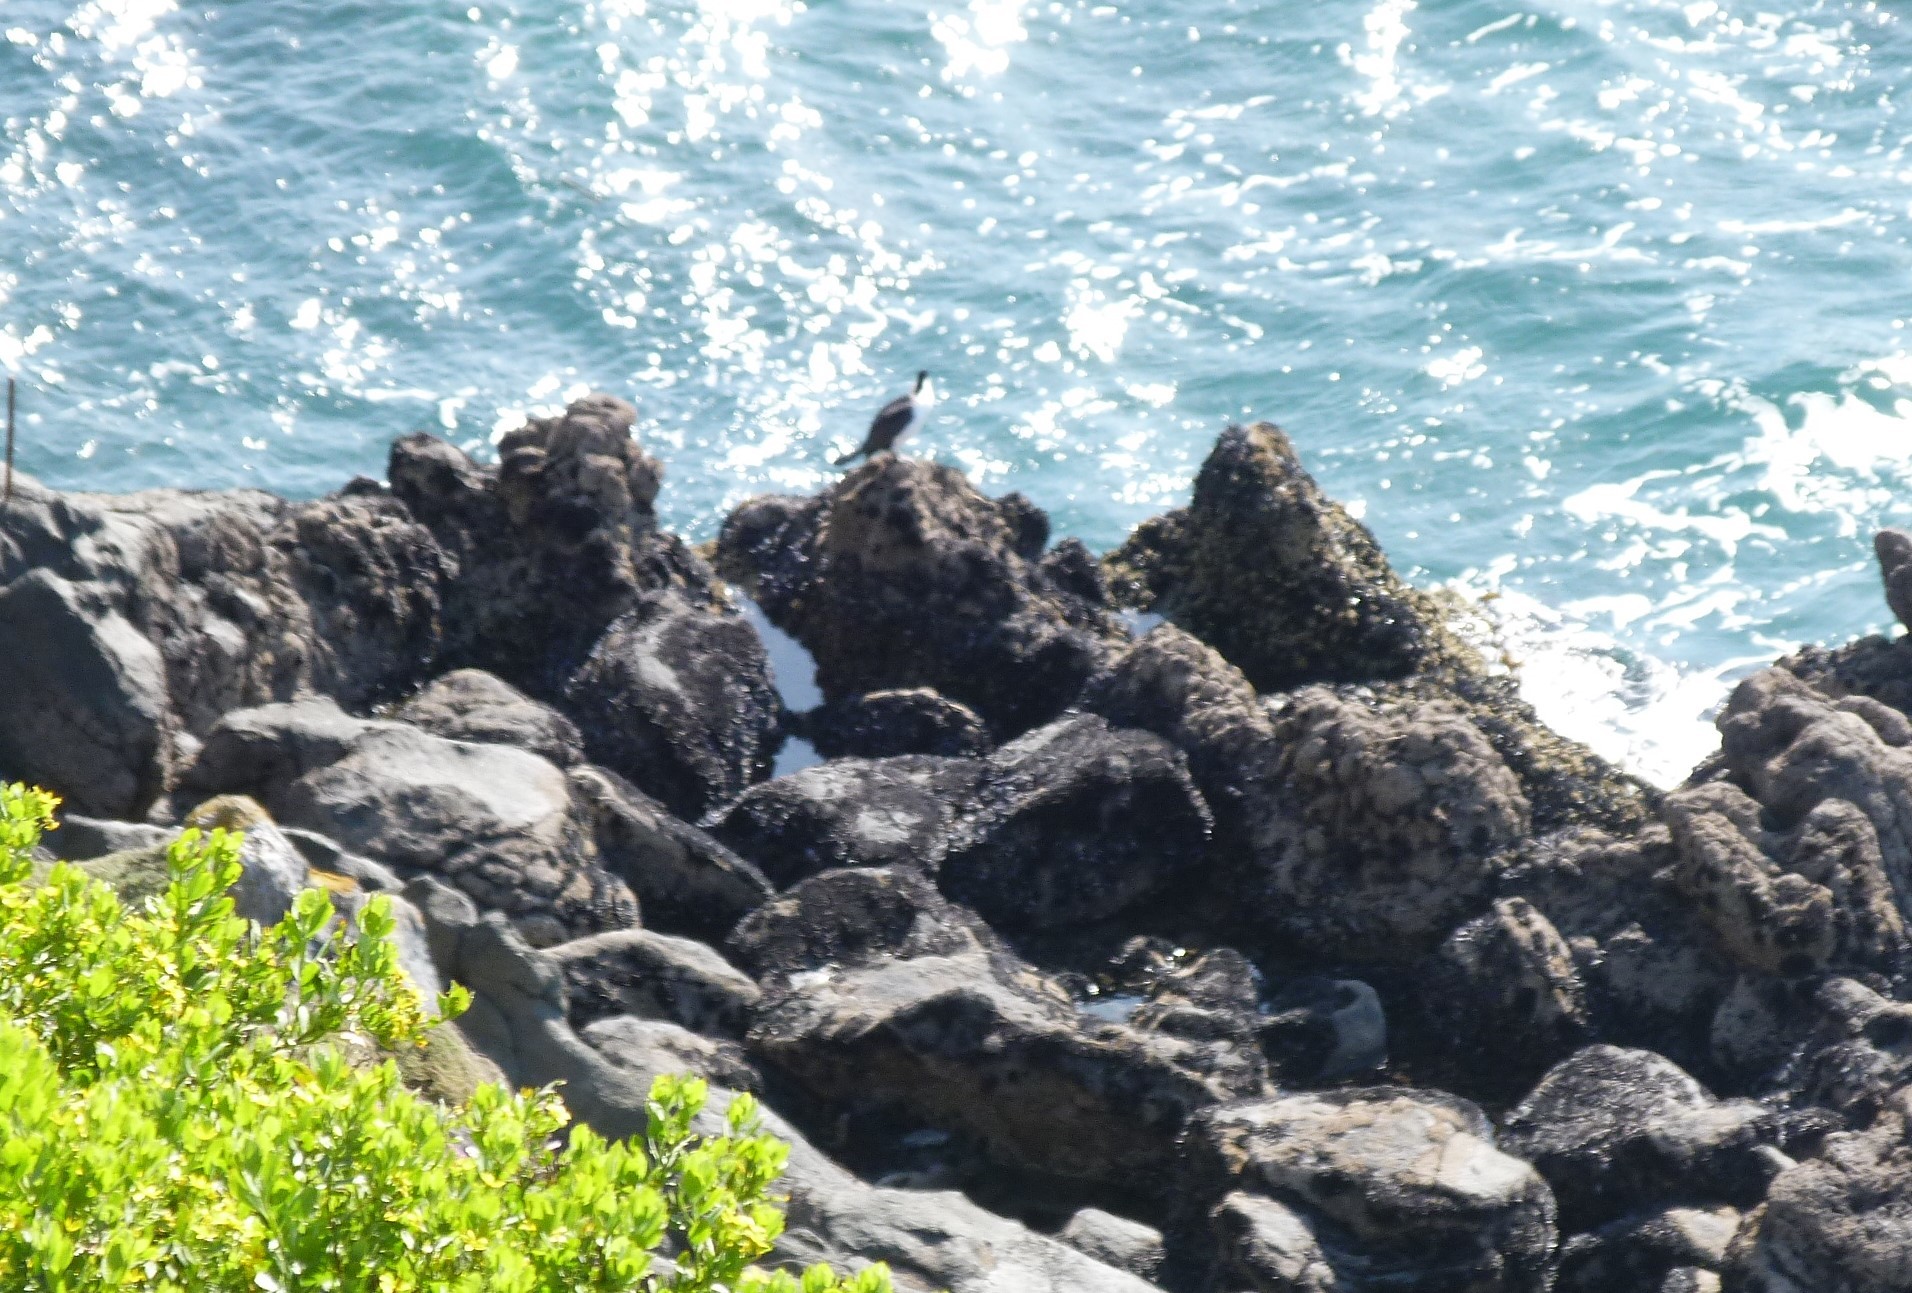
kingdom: Animalia
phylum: Chordata
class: Aves
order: Suliformes
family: Phalacrocoracidae
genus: Phalacrocorax
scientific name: Phalacrocorax varius
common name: Pied cormorant
